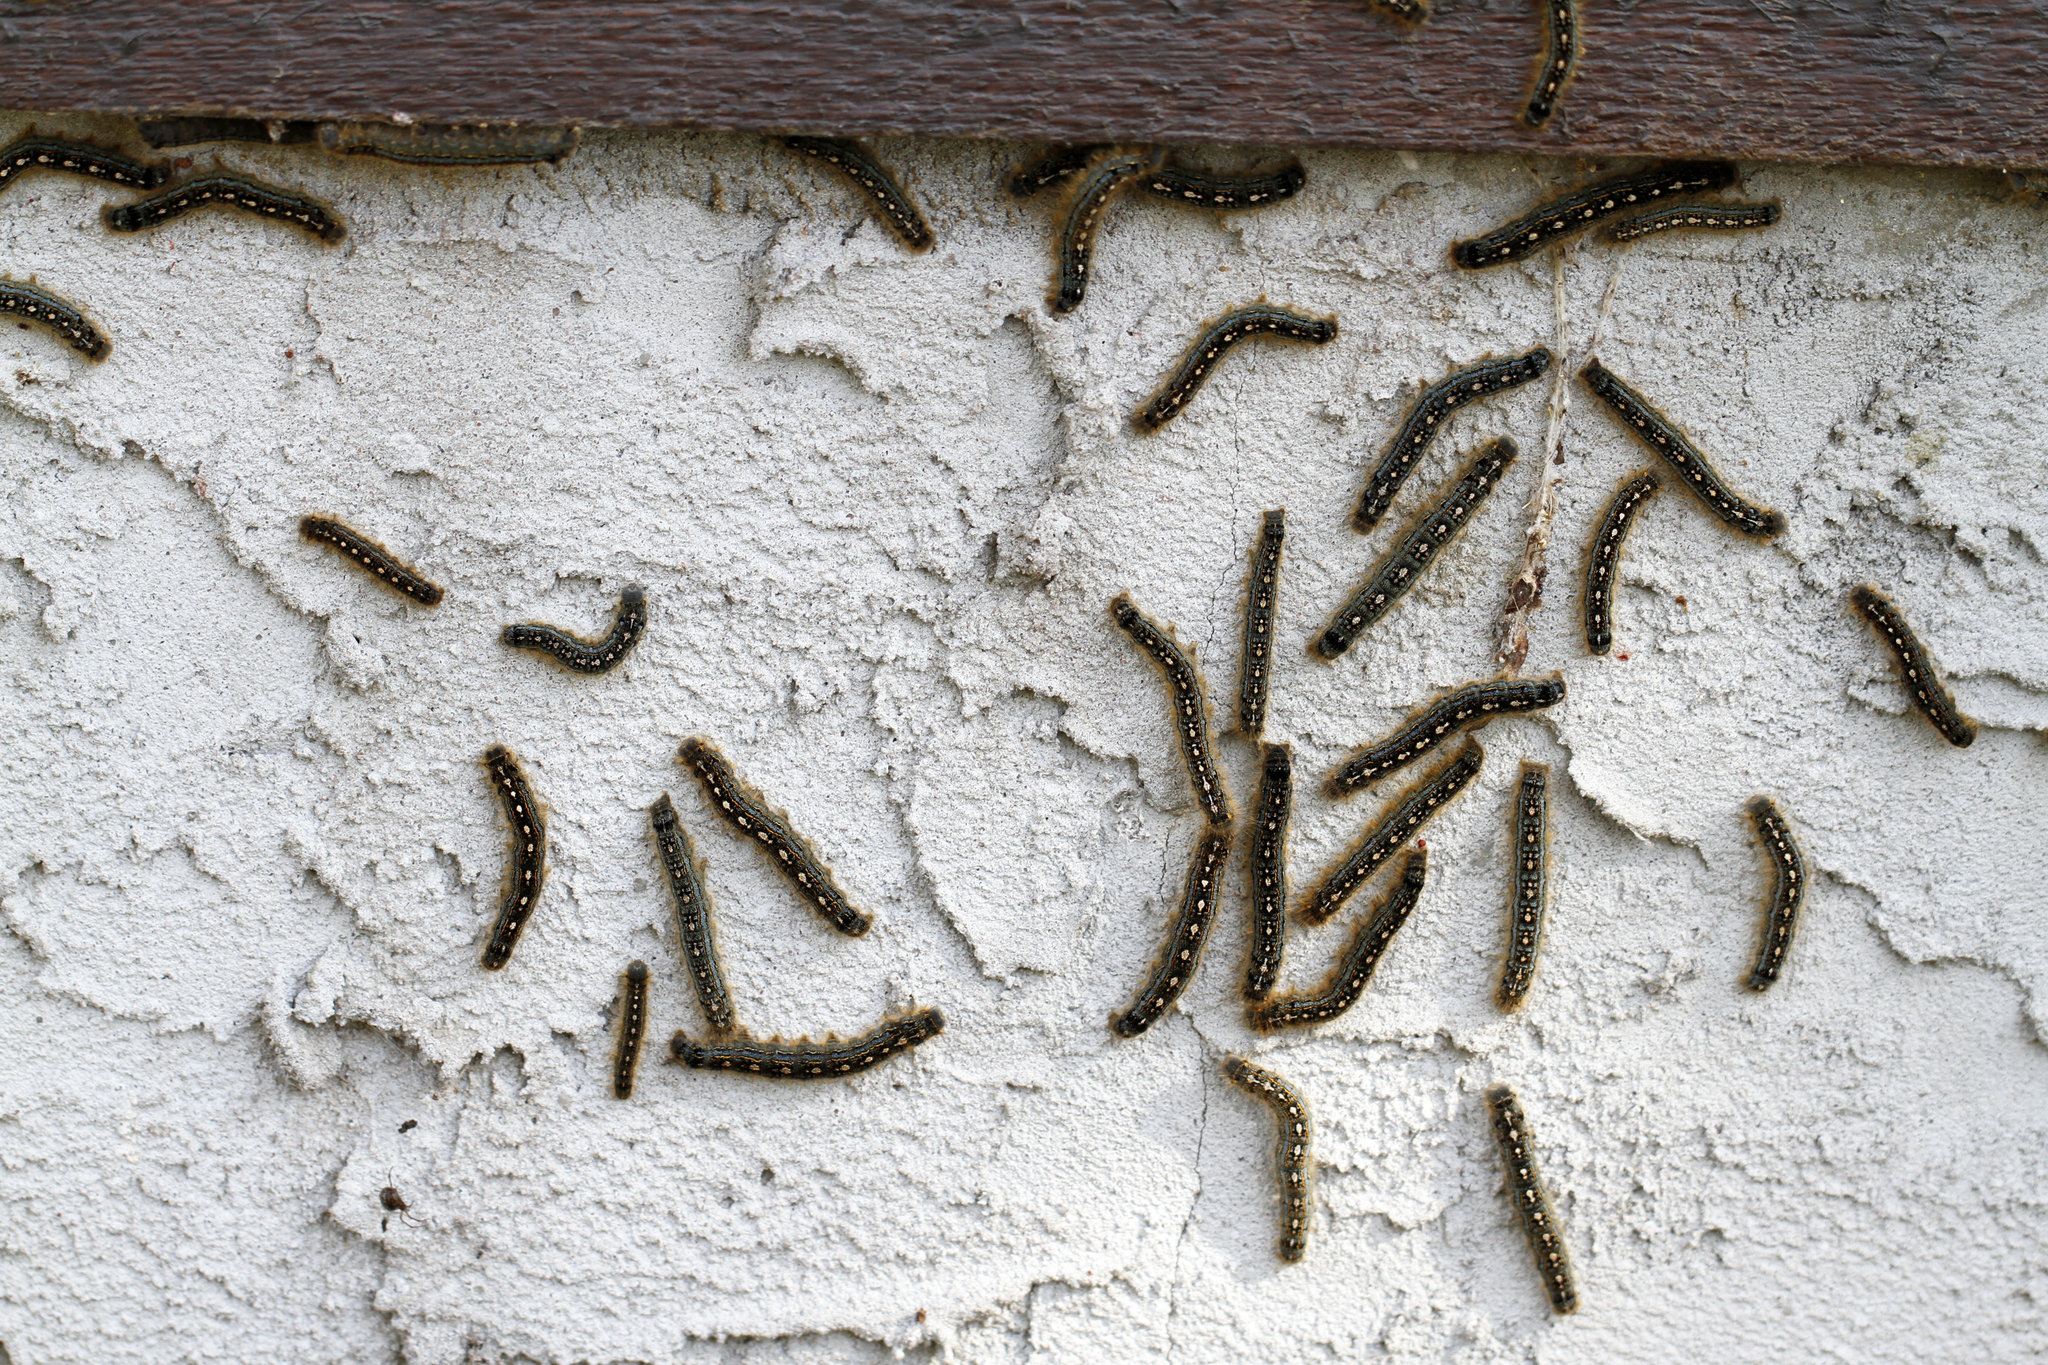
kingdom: Animalia
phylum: Arthropoda
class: Insecta
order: Lepidoptera
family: Lasiocampidae
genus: Malacosoma
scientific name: Malacosoma disstria
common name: Forest tent caterpillar
